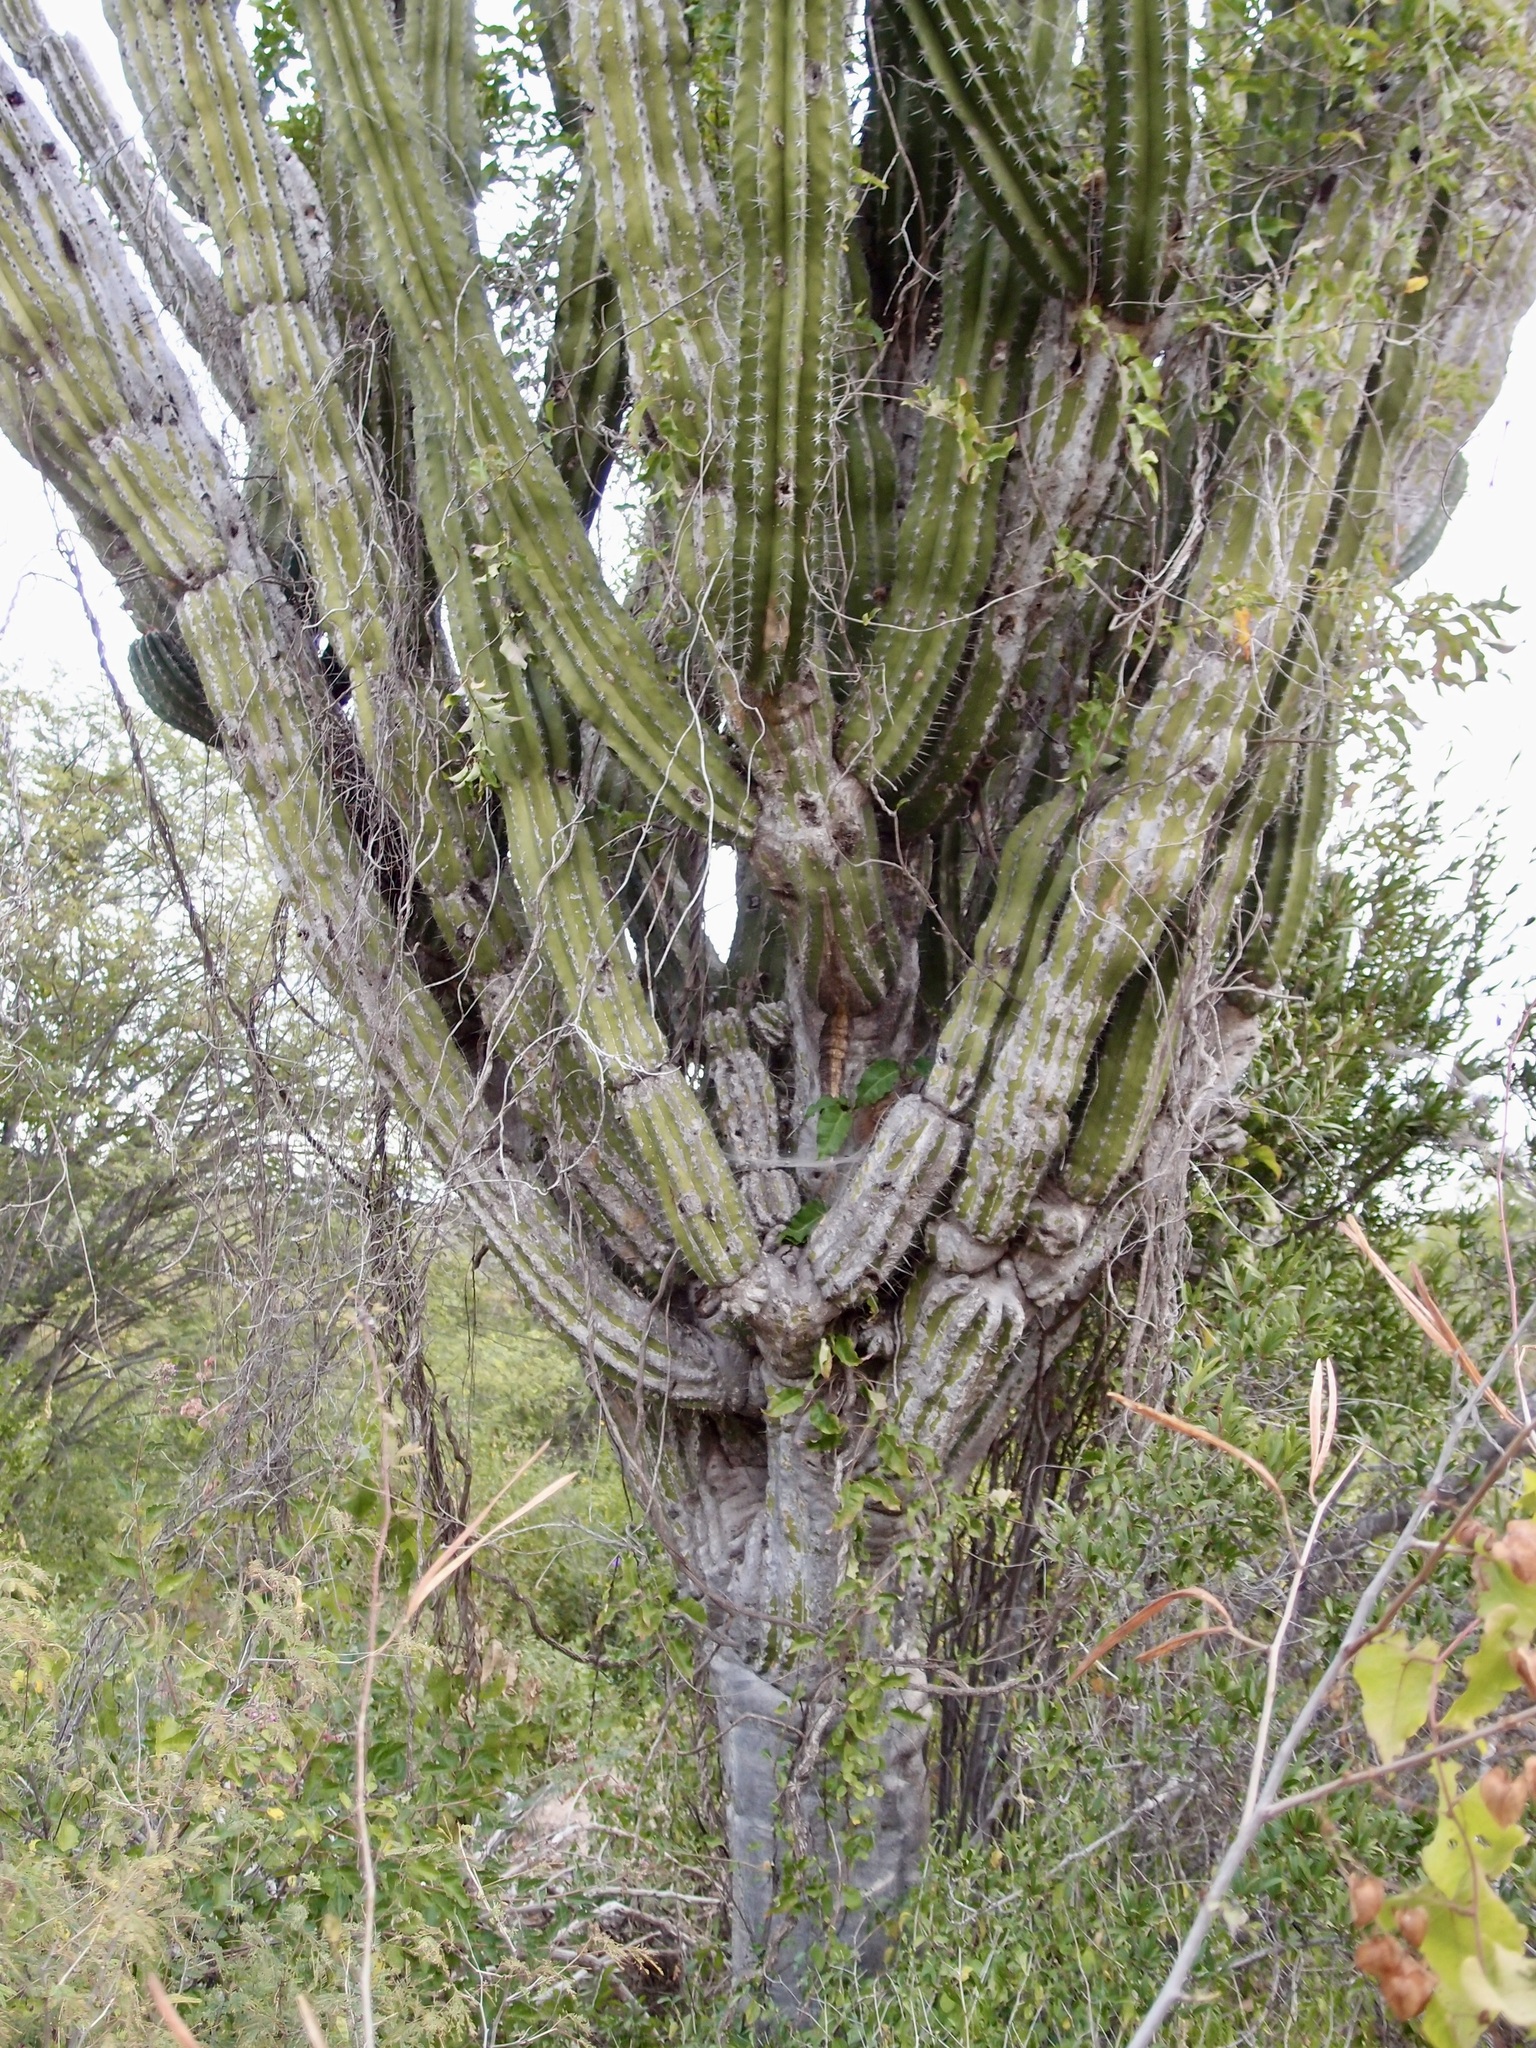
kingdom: Plantae
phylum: Tracheophyta
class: Magnoliopsida
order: Caryophyllales
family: Cactaceae
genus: Pachycereus
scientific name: Pachycereus pecten-aboriginum
